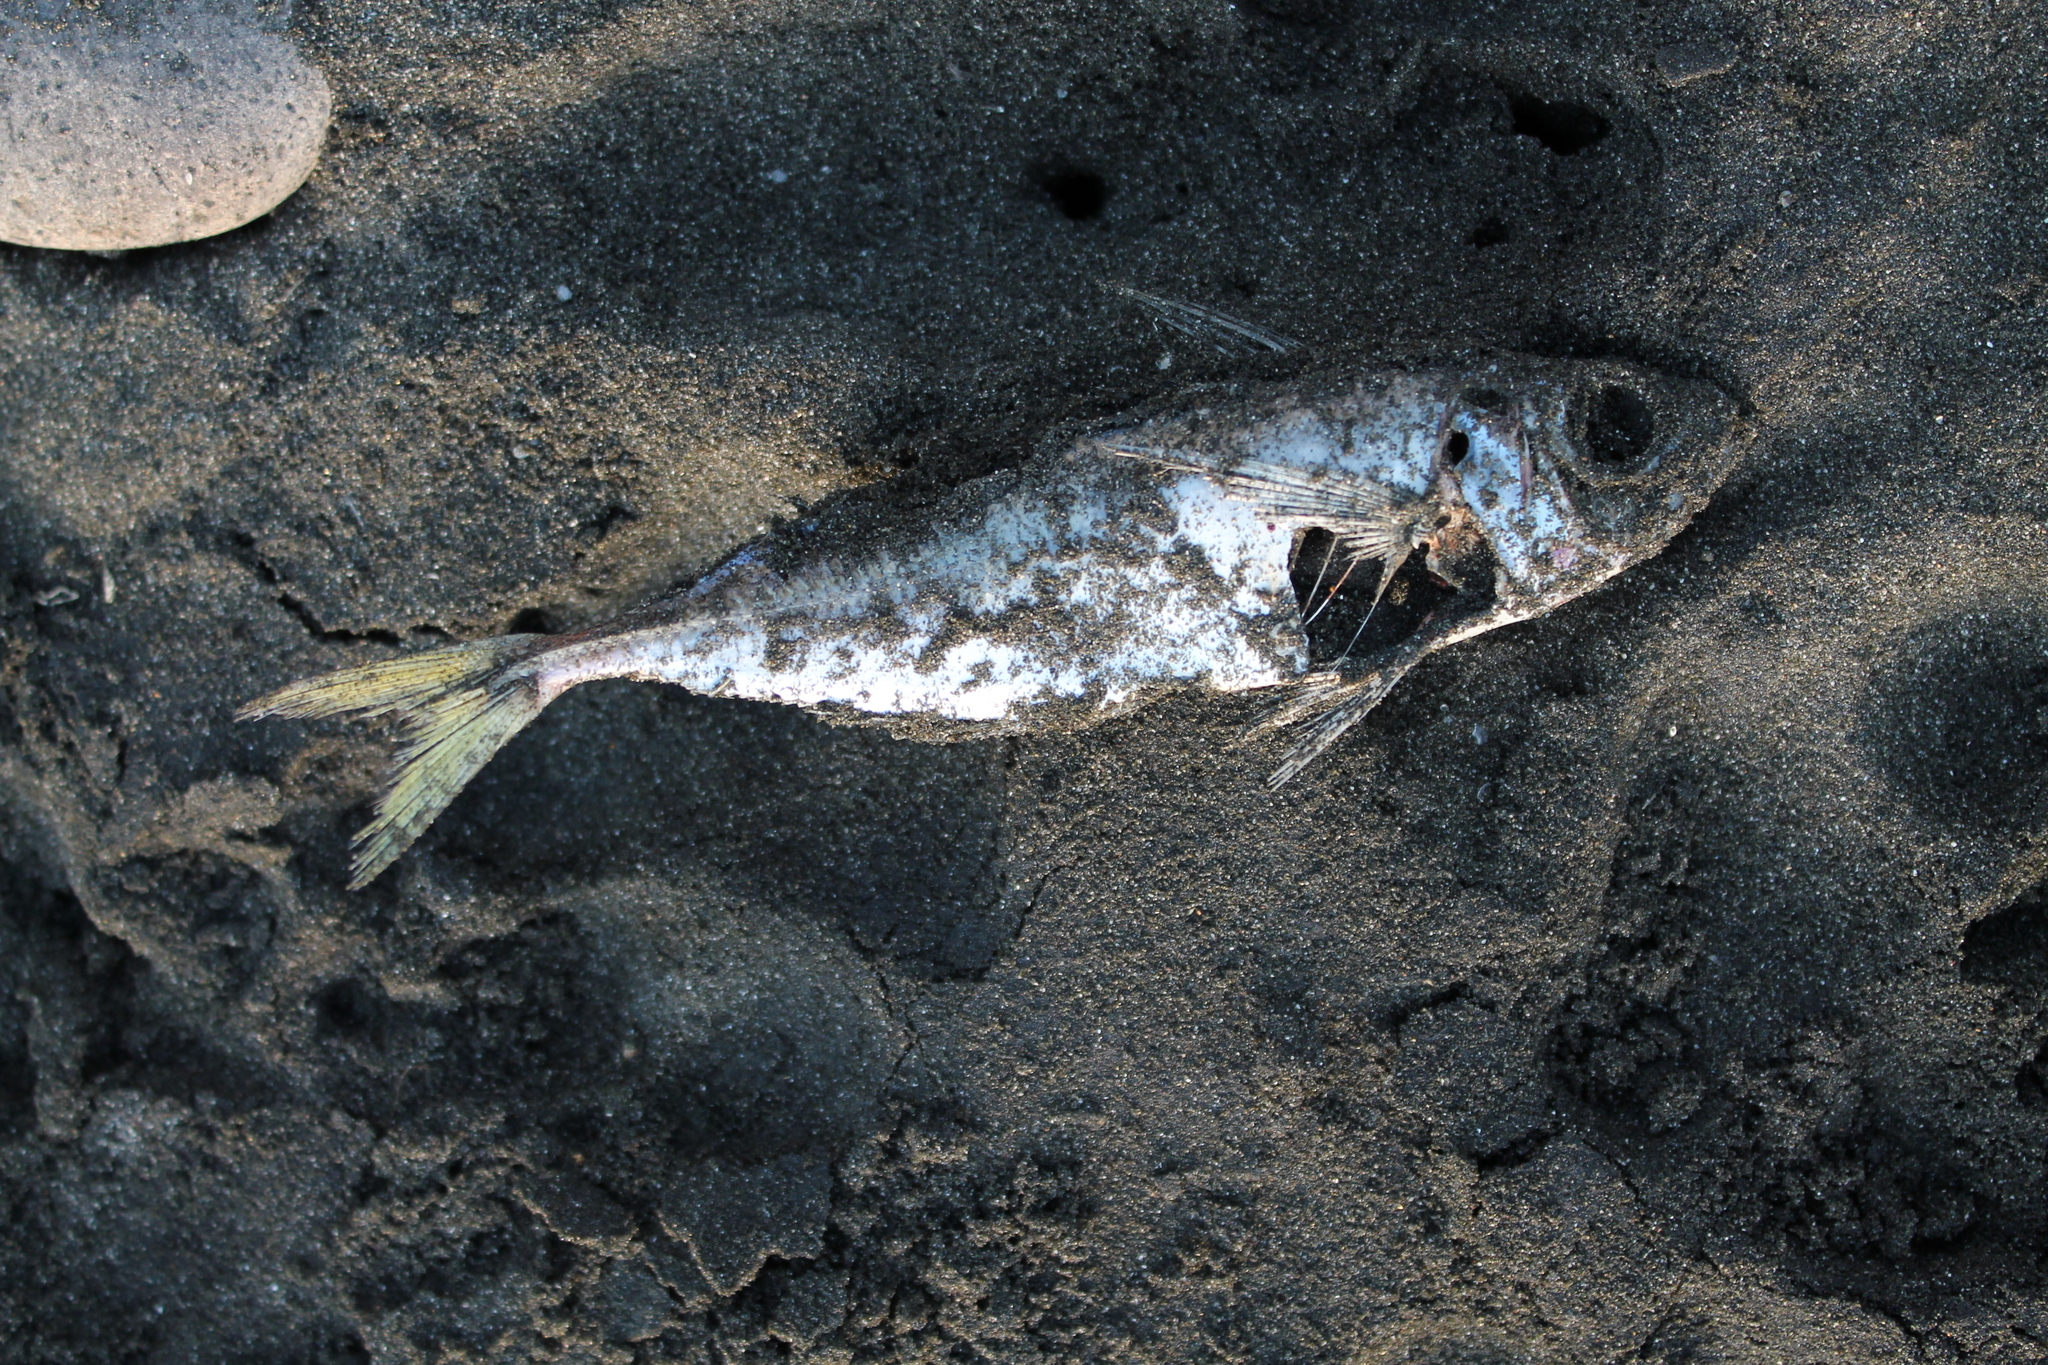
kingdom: Animalia
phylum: Chordata
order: Perciformes
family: Carangidae
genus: Trachurus
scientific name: Trachurus novaezelandiae
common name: Yellowtail horse mackerel
